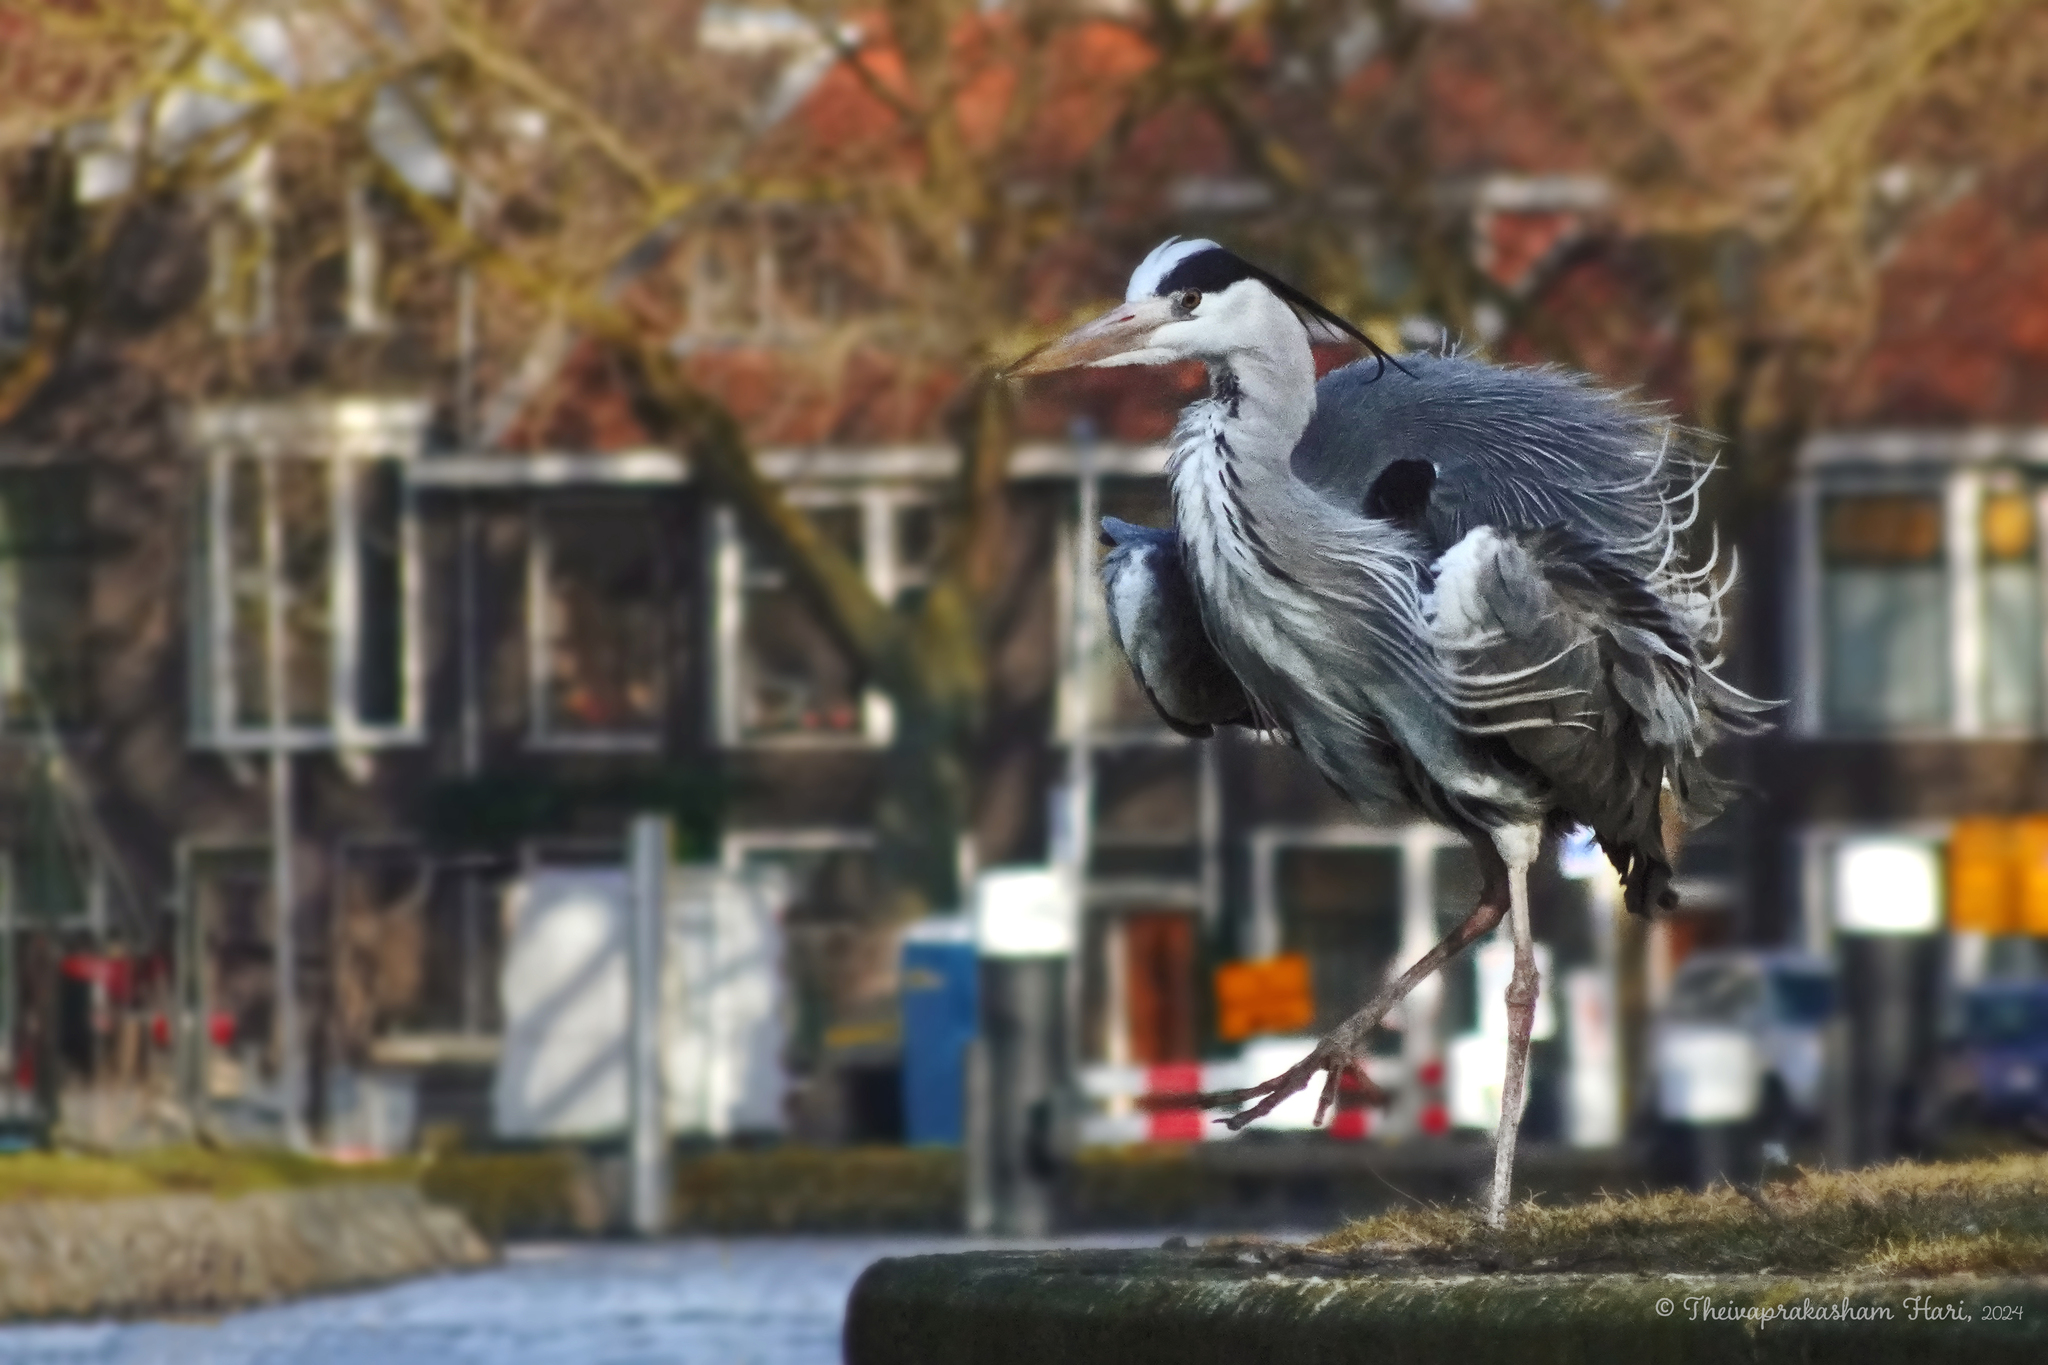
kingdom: Animalia
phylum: Chordata
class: Aves
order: Pelecaniformes
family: Ardeidae
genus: Ardea
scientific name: Ardea cinerea
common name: Grey heron
